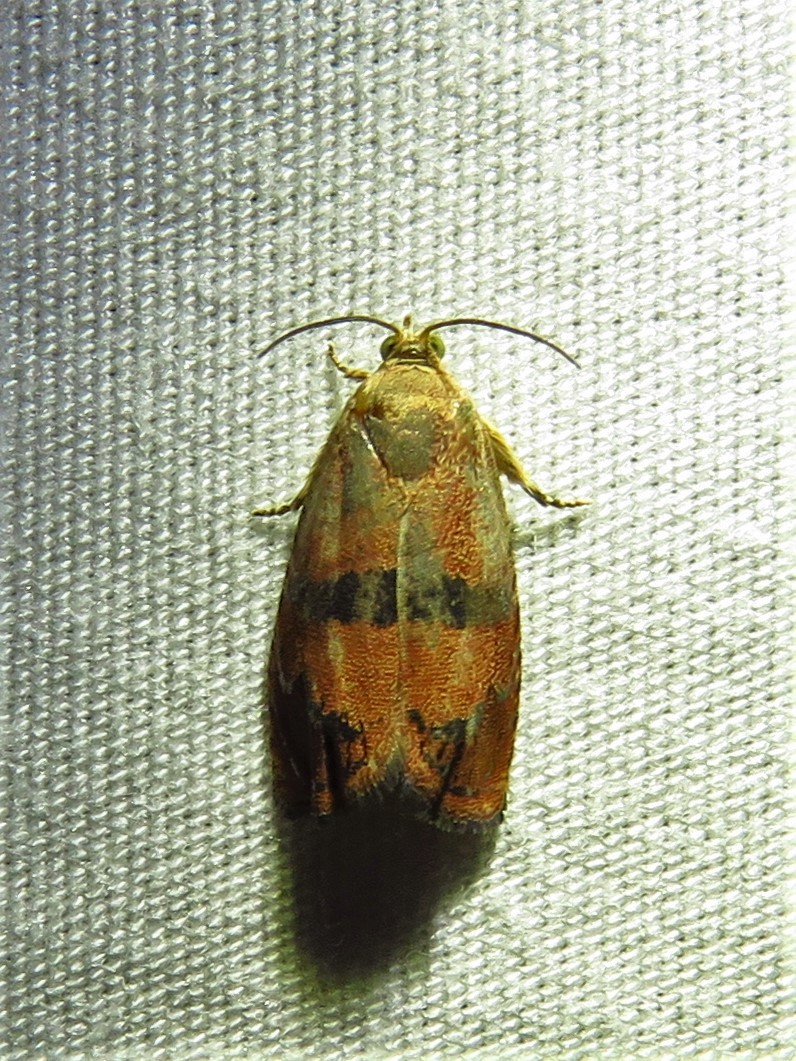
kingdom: Animalia
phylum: Arthropoda
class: Insecta
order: Lepidoptera
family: Tortricidae
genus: Cydia
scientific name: Cydia latiferreana
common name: Filbertworm moth
